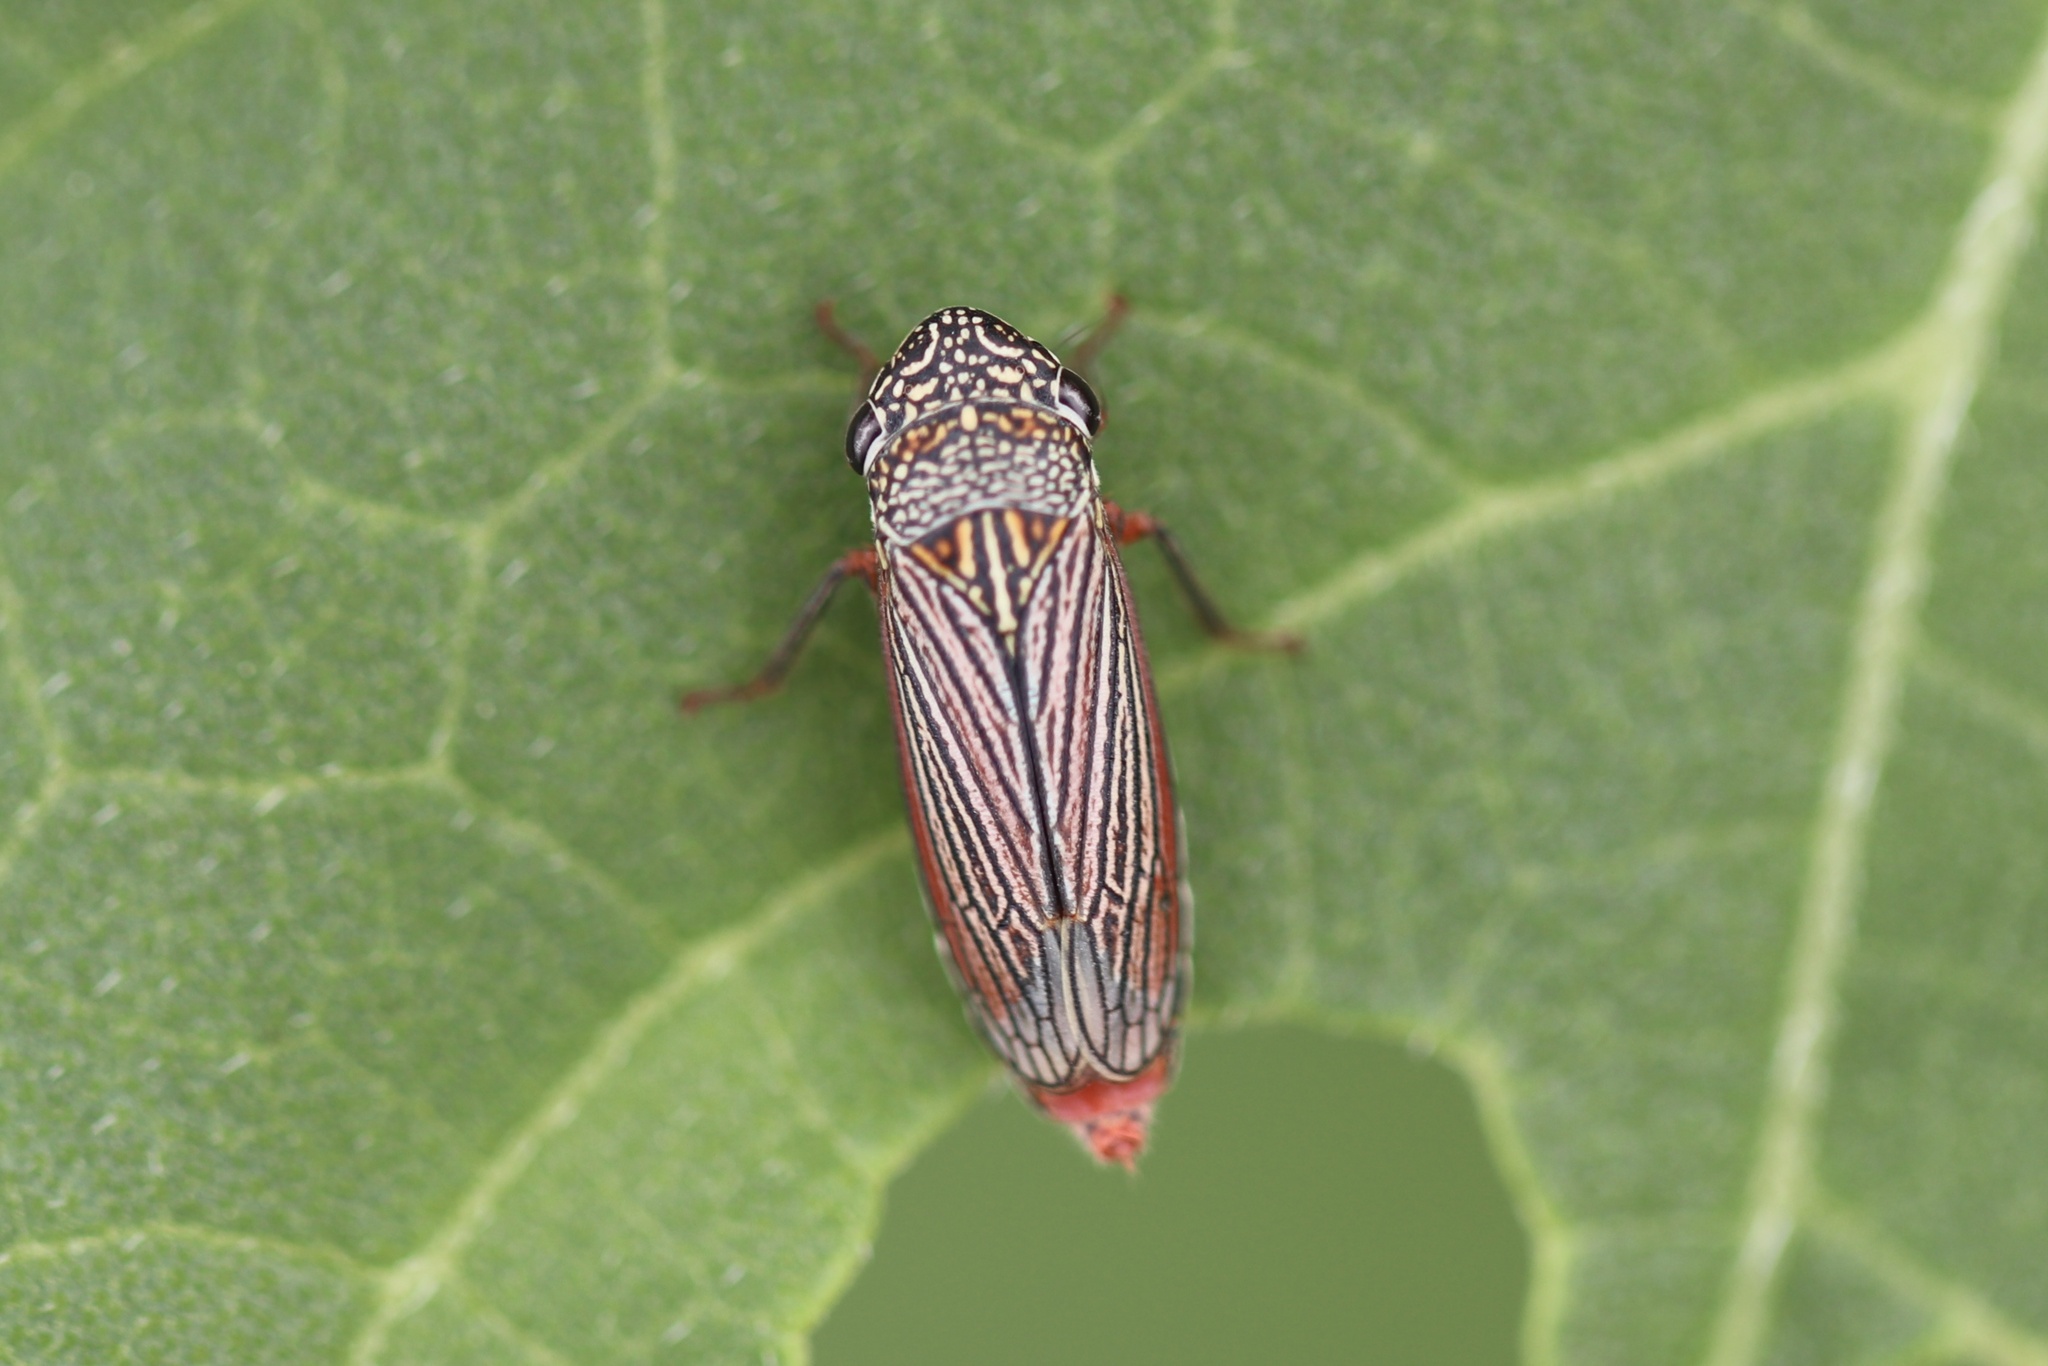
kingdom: Animalia
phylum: Arthropoda
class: Insecta
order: Hemiptera
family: Cicadellidae
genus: Cuerna
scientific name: Cuerna costalis
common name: Lateral-lined sharpshooter
